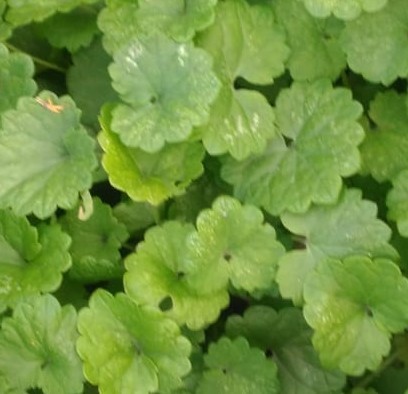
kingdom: Plantae
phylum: Tracheophyta
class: Magnoliopsida
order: Lamiales
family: Lamiaceae
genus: Glechoma
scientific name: Glechoma hederacea
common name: Ground ivy
